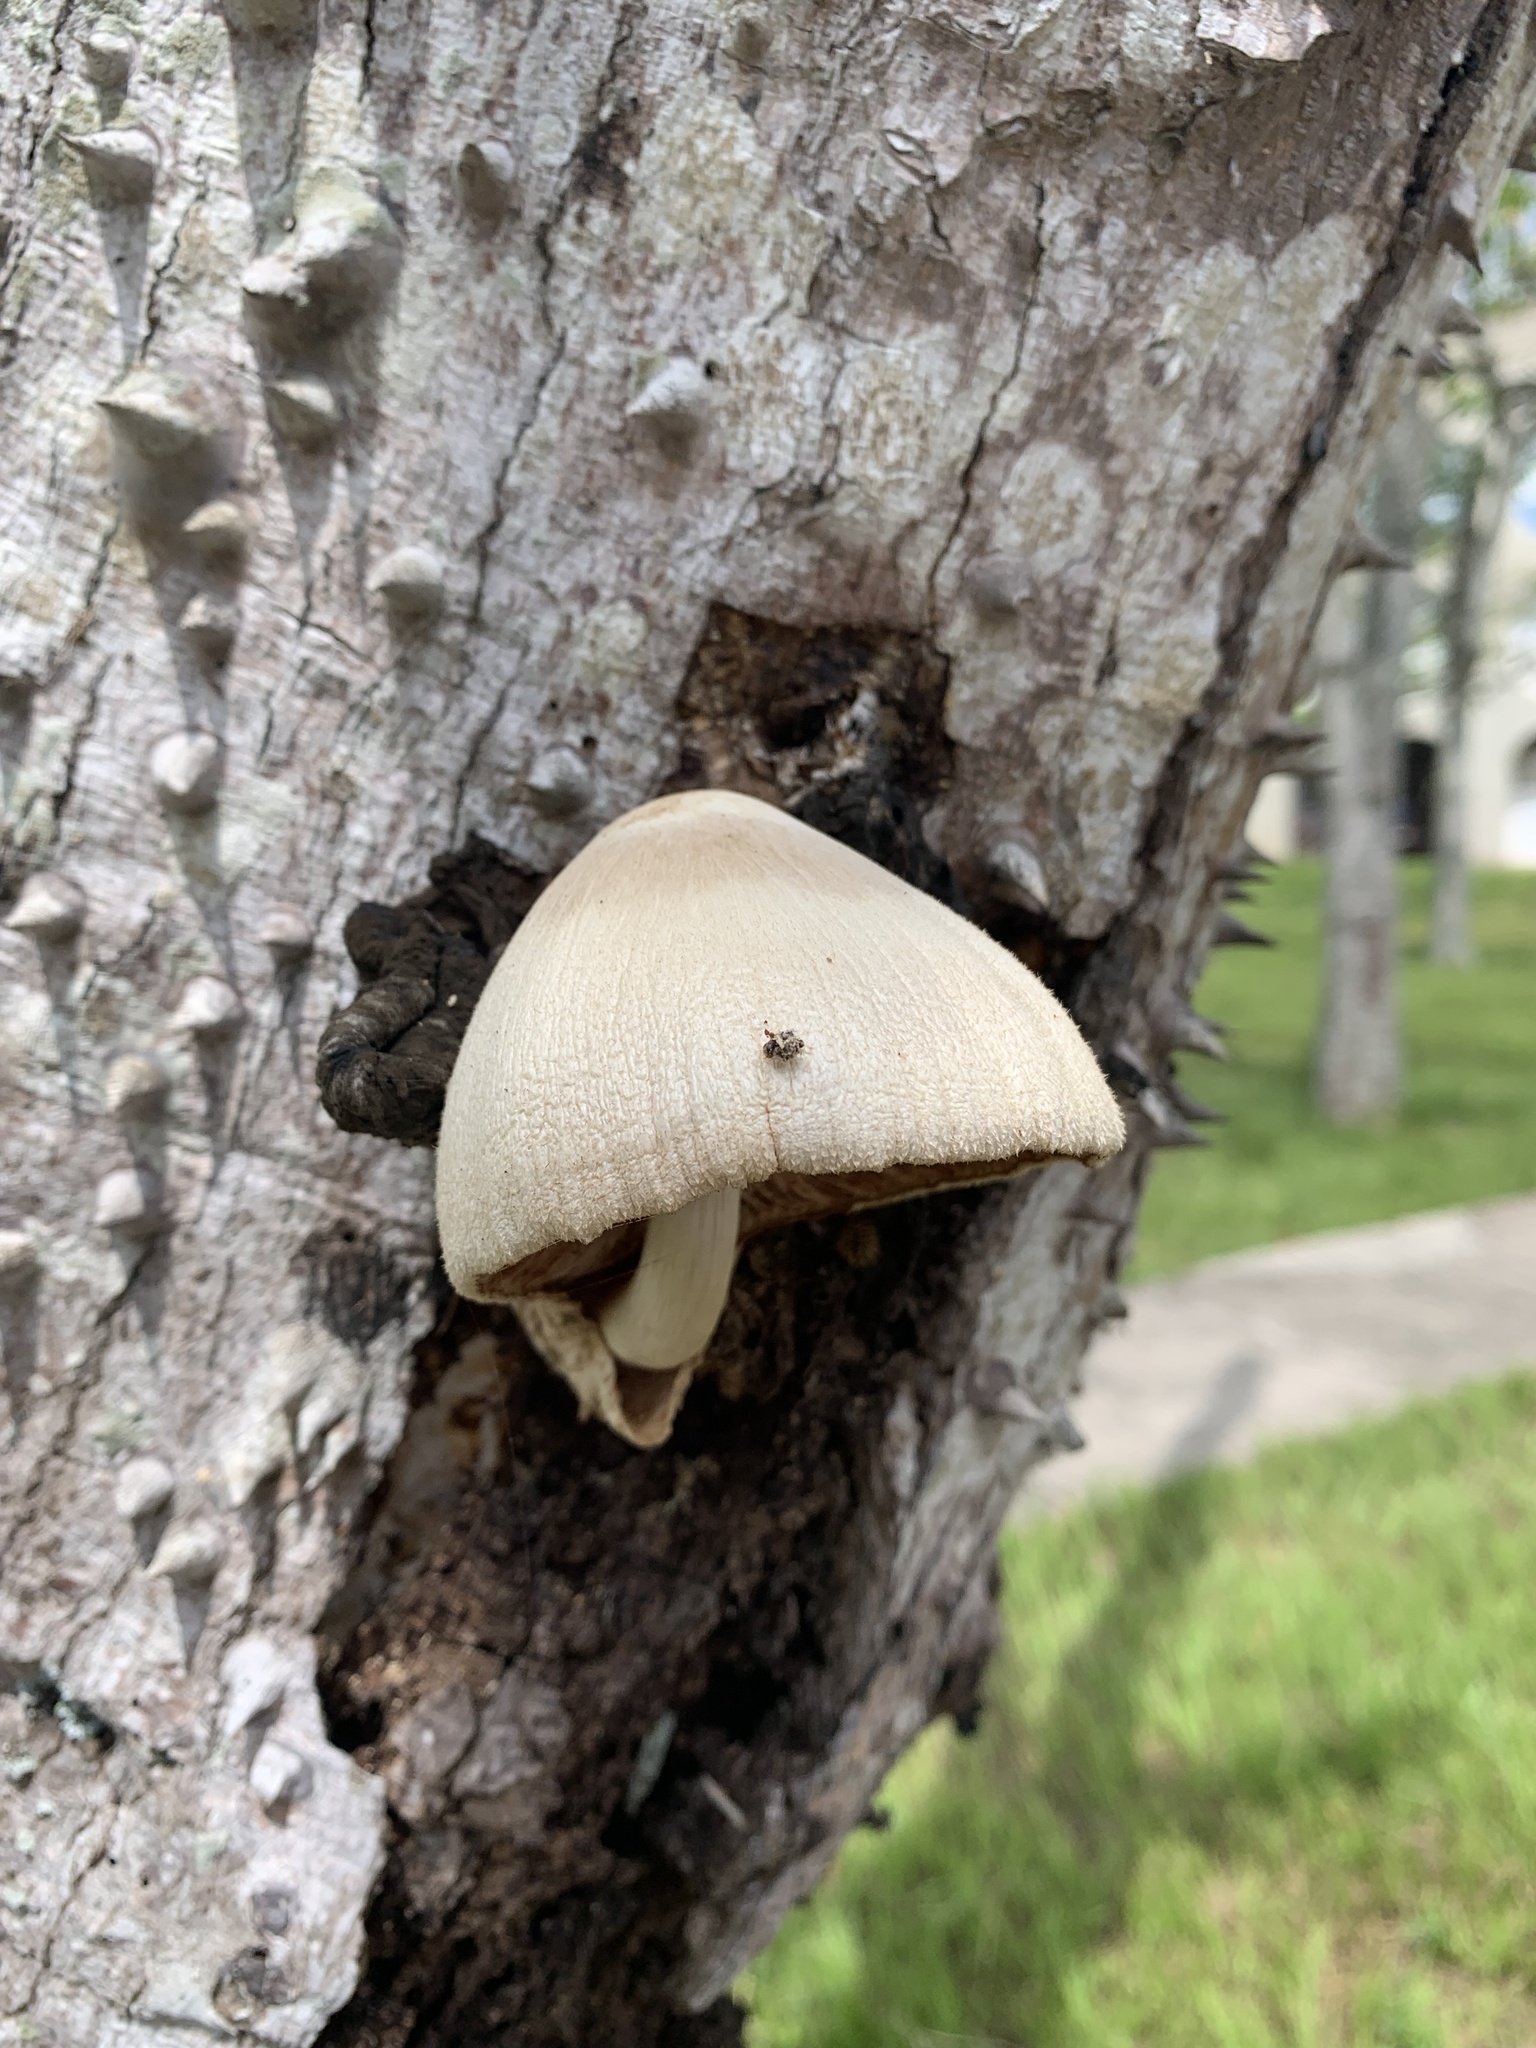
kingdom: Fungi
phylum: Basidiomycota
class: Agaricomycetes
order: Agaricales
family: Pluteaceae
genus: Volvariella
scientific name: Volvariella bombycina
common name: Silky rosegill
